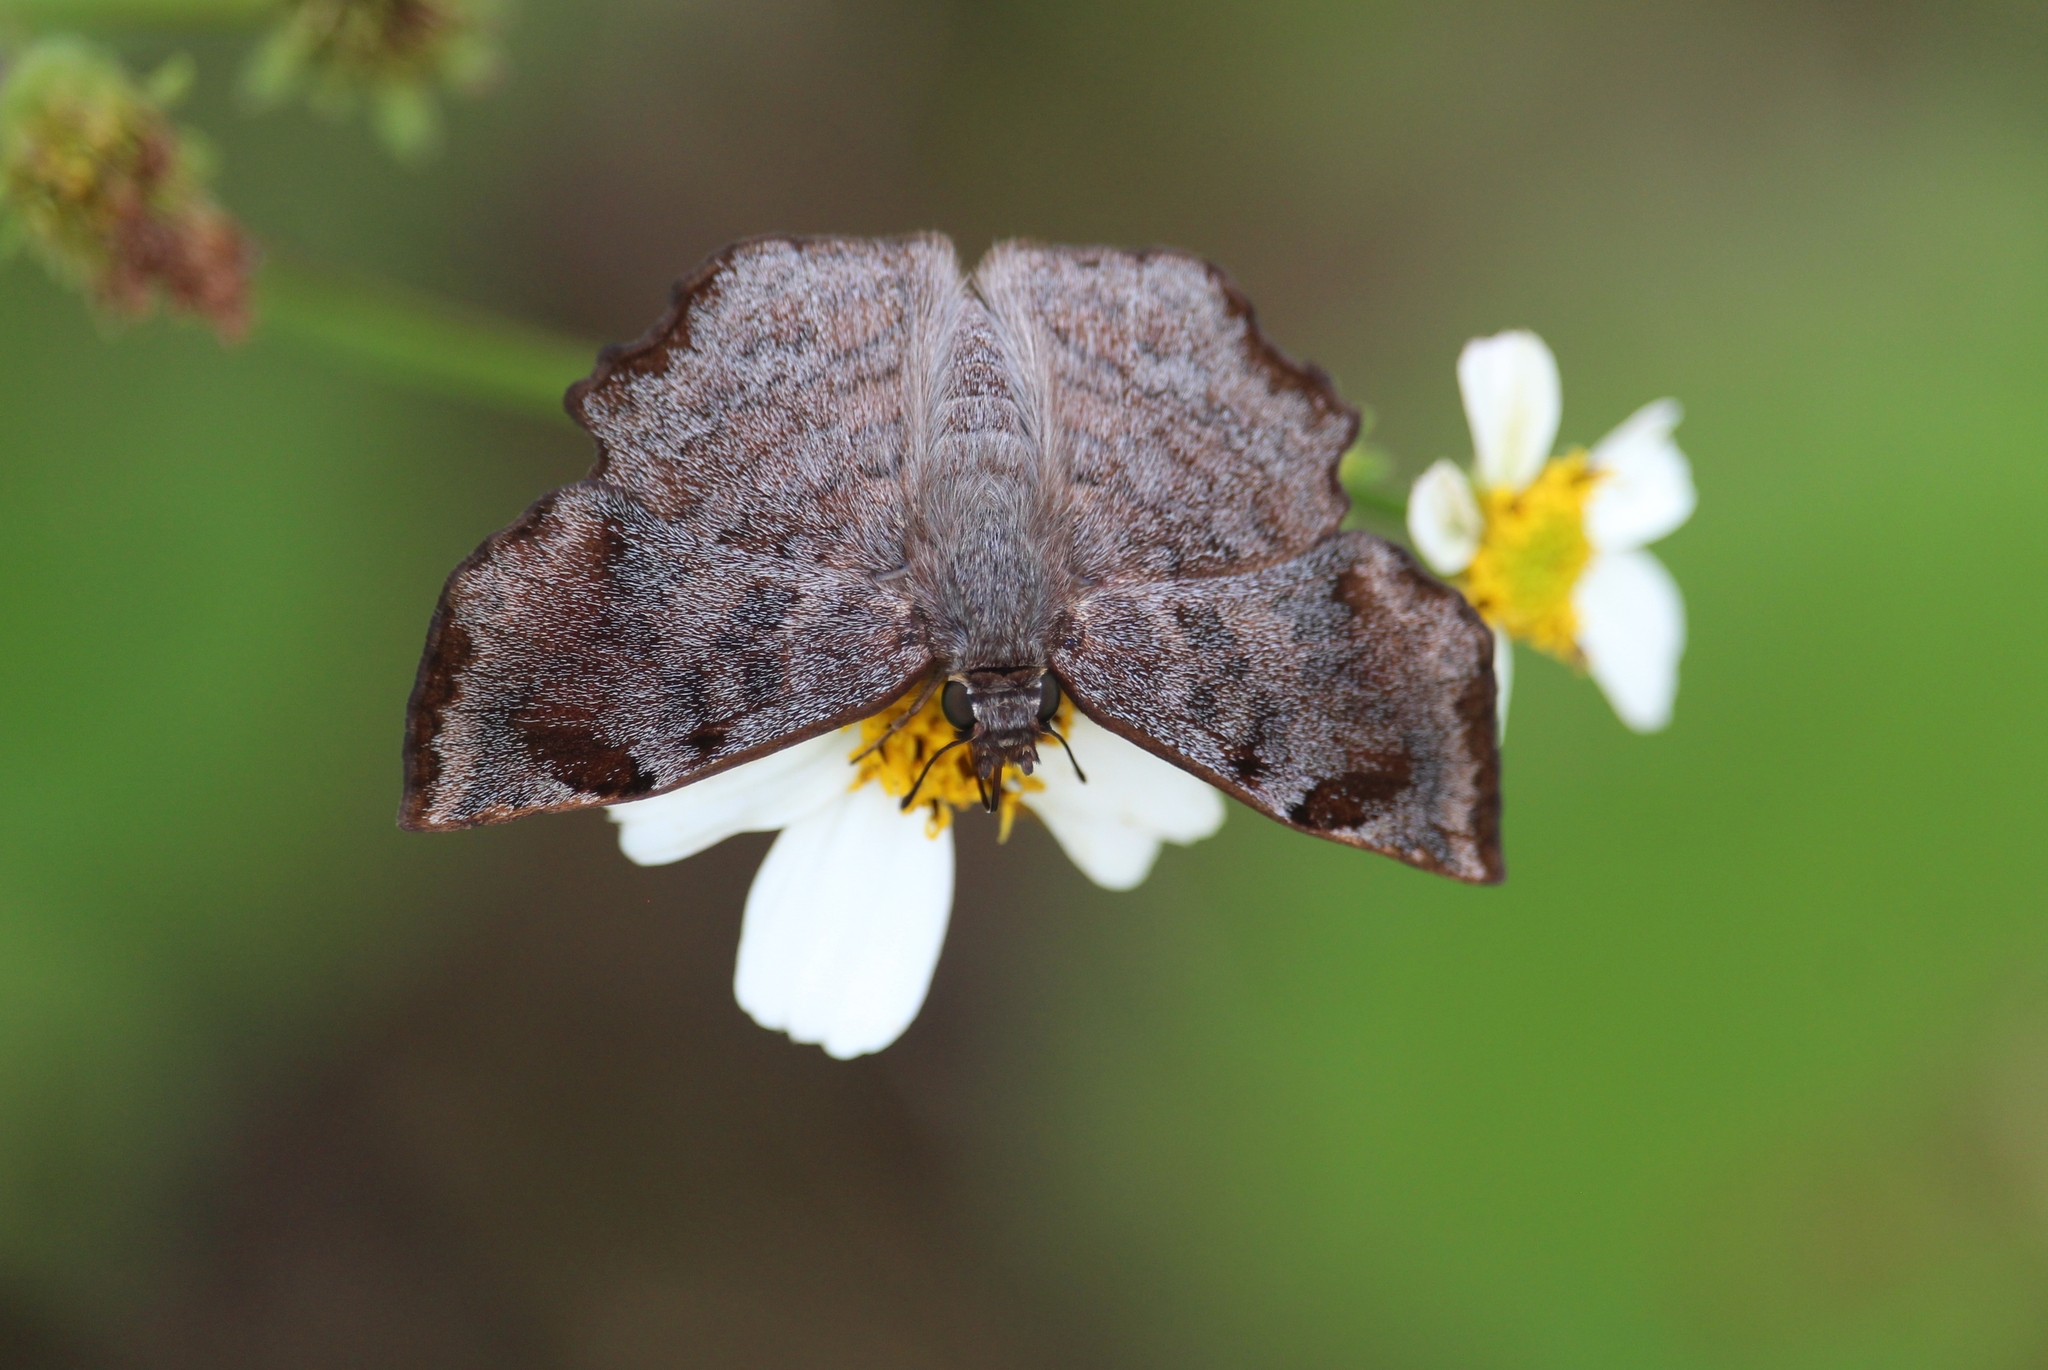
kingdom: Animalia
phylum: Arthropoda
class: Insecta
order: Lepidoptera
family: Hesperiidae
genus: Antigonus
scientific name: Antigonus erosus
